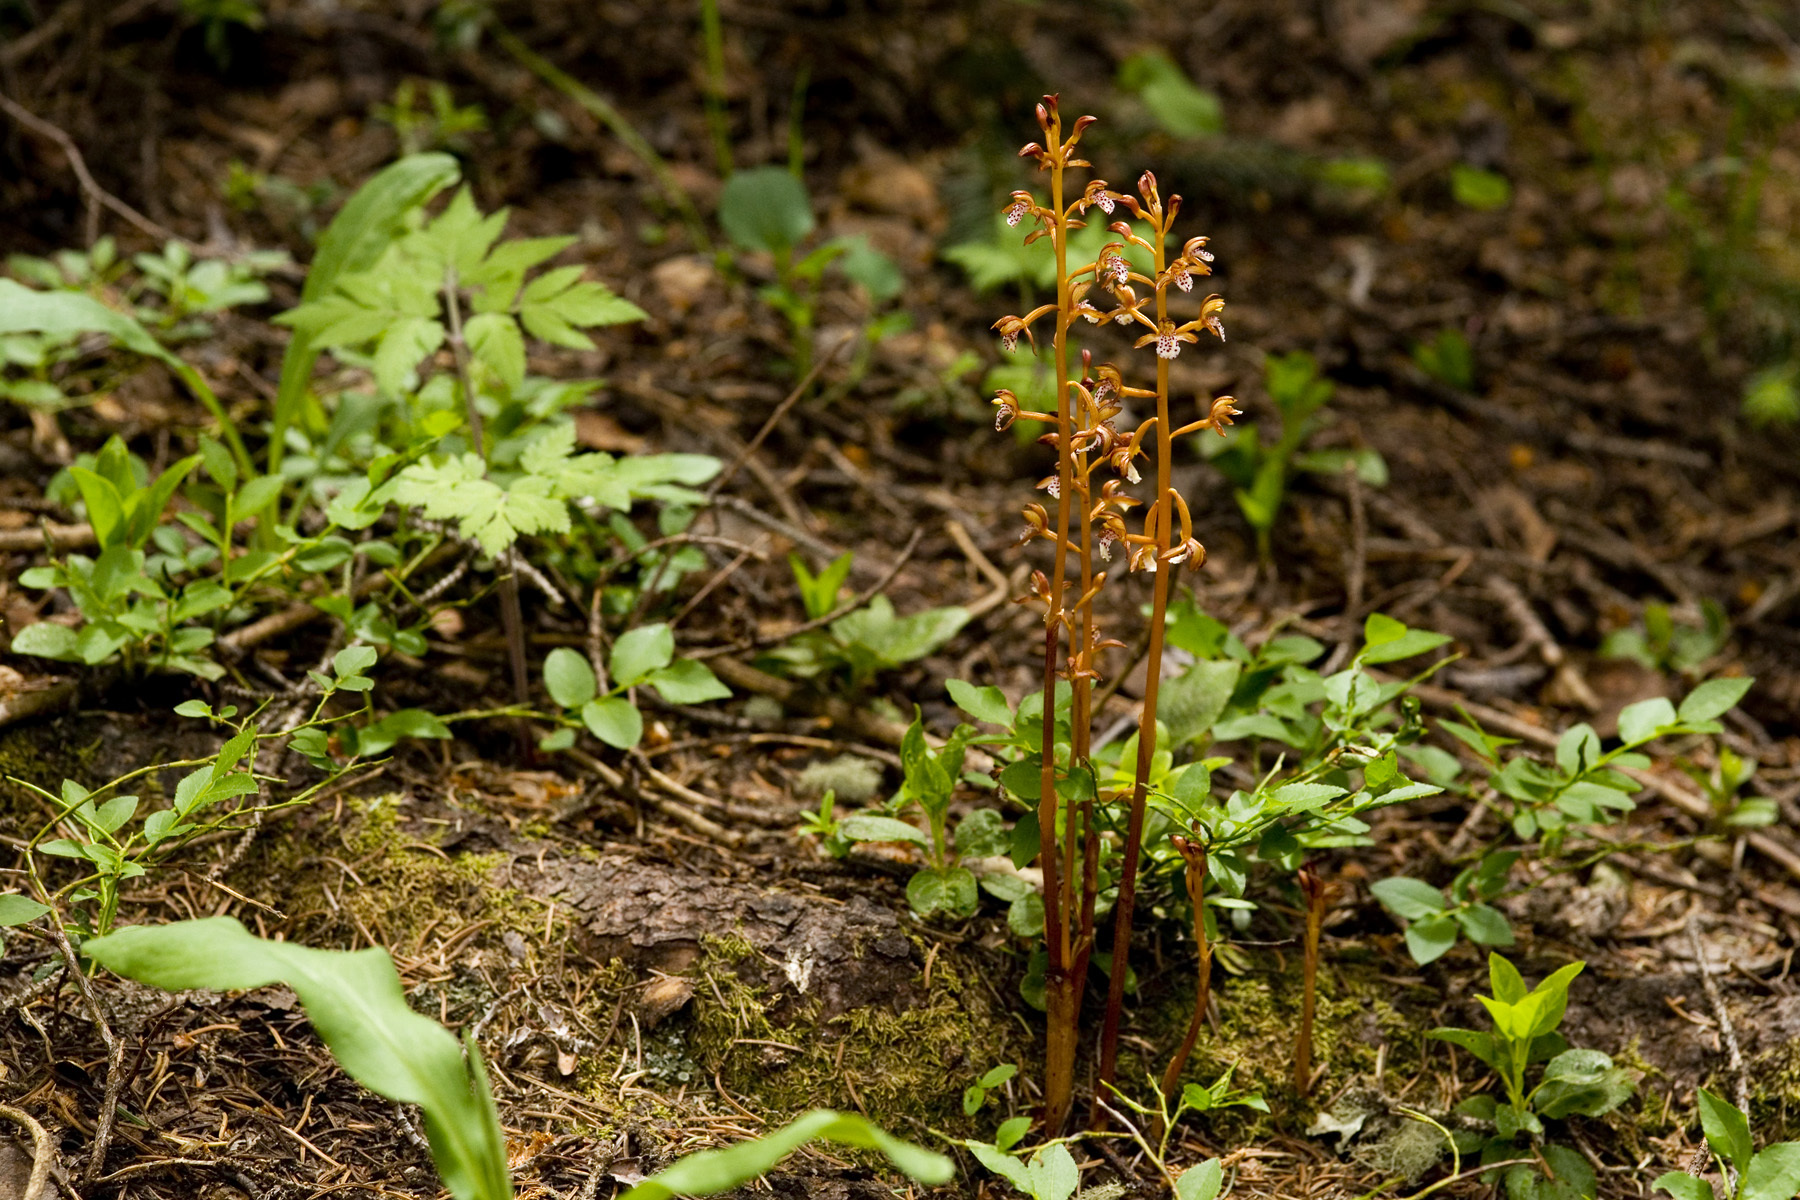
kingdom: Plantae
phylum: Tracheophyta
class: Liliopsida
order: Asparagales
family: Orchidaceae
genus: Corallorhiza
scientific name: Corallorhiza maculata
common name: Spotted coralroot
